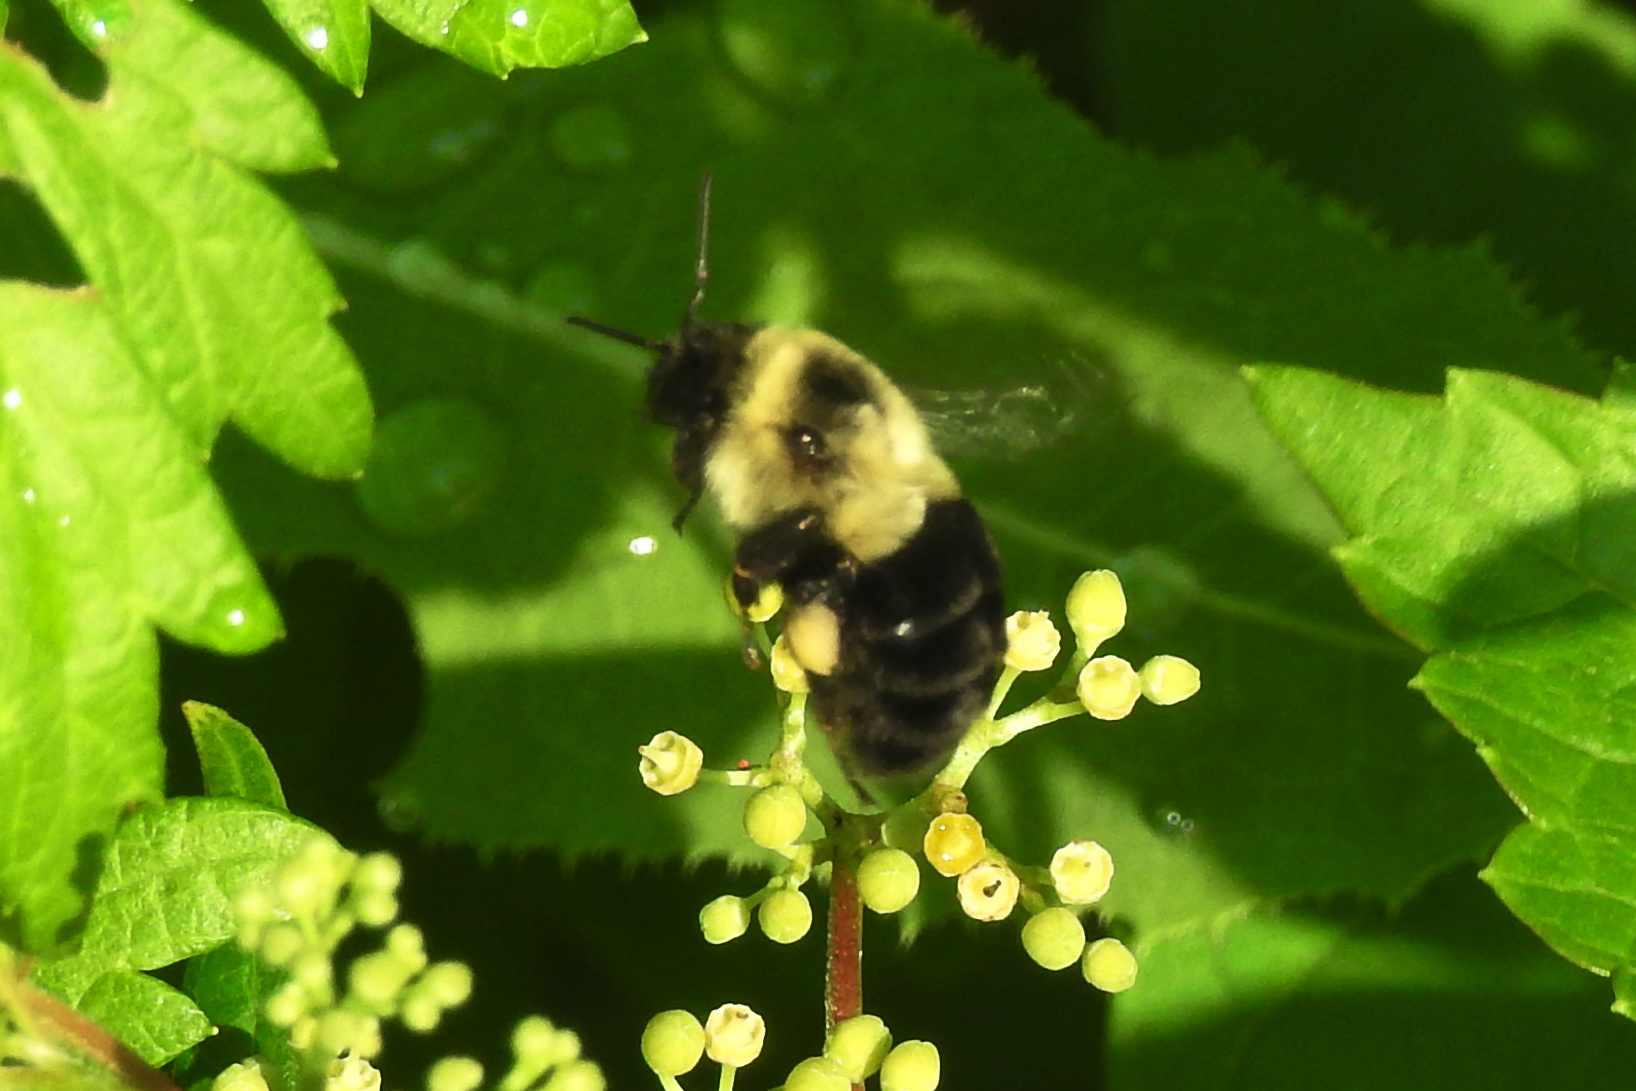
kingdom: Animalia
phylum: Arthropoda
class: Insecta
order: Hymenoptera
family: Apidae
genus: Bombus
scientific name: Bombus impatiens
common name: Common eastern bumble bee
